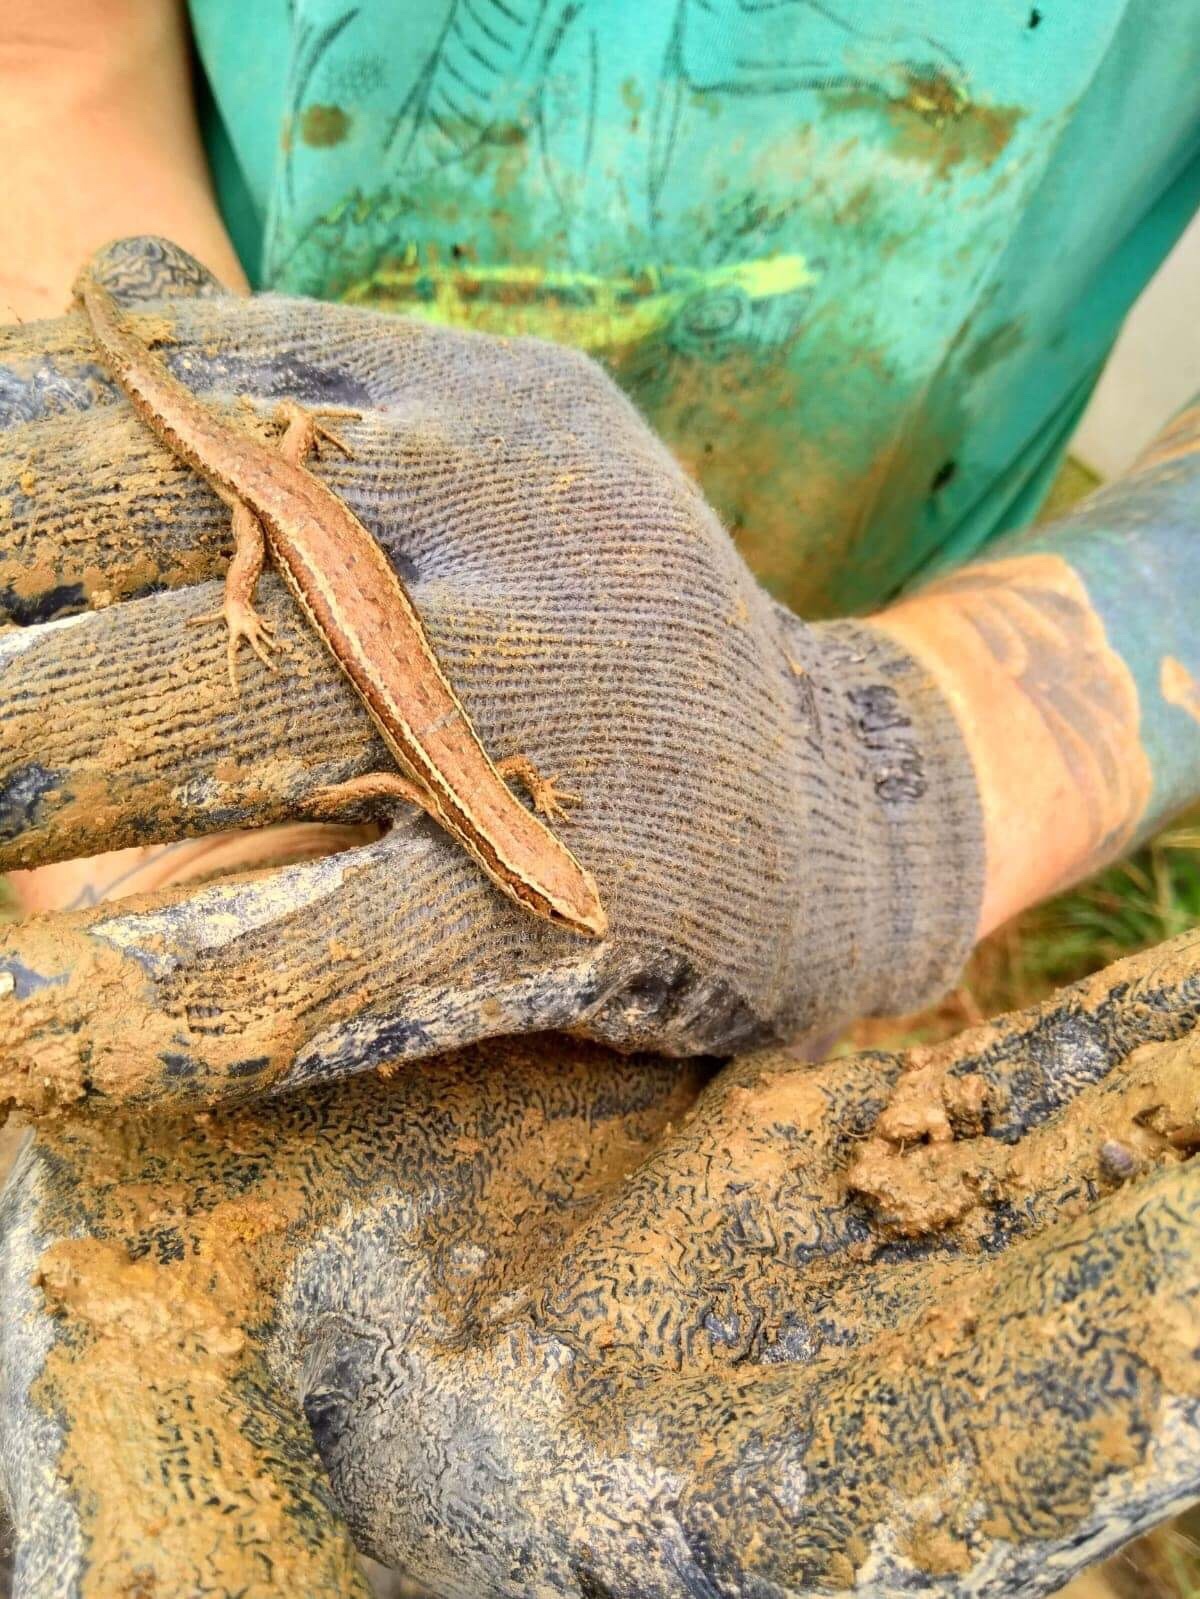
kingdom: Animalia
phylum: Chordata
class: Squamata
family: Scincidae
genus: Oligosoma
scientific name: Oligosoma polychroma
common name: Common new zealand skink
